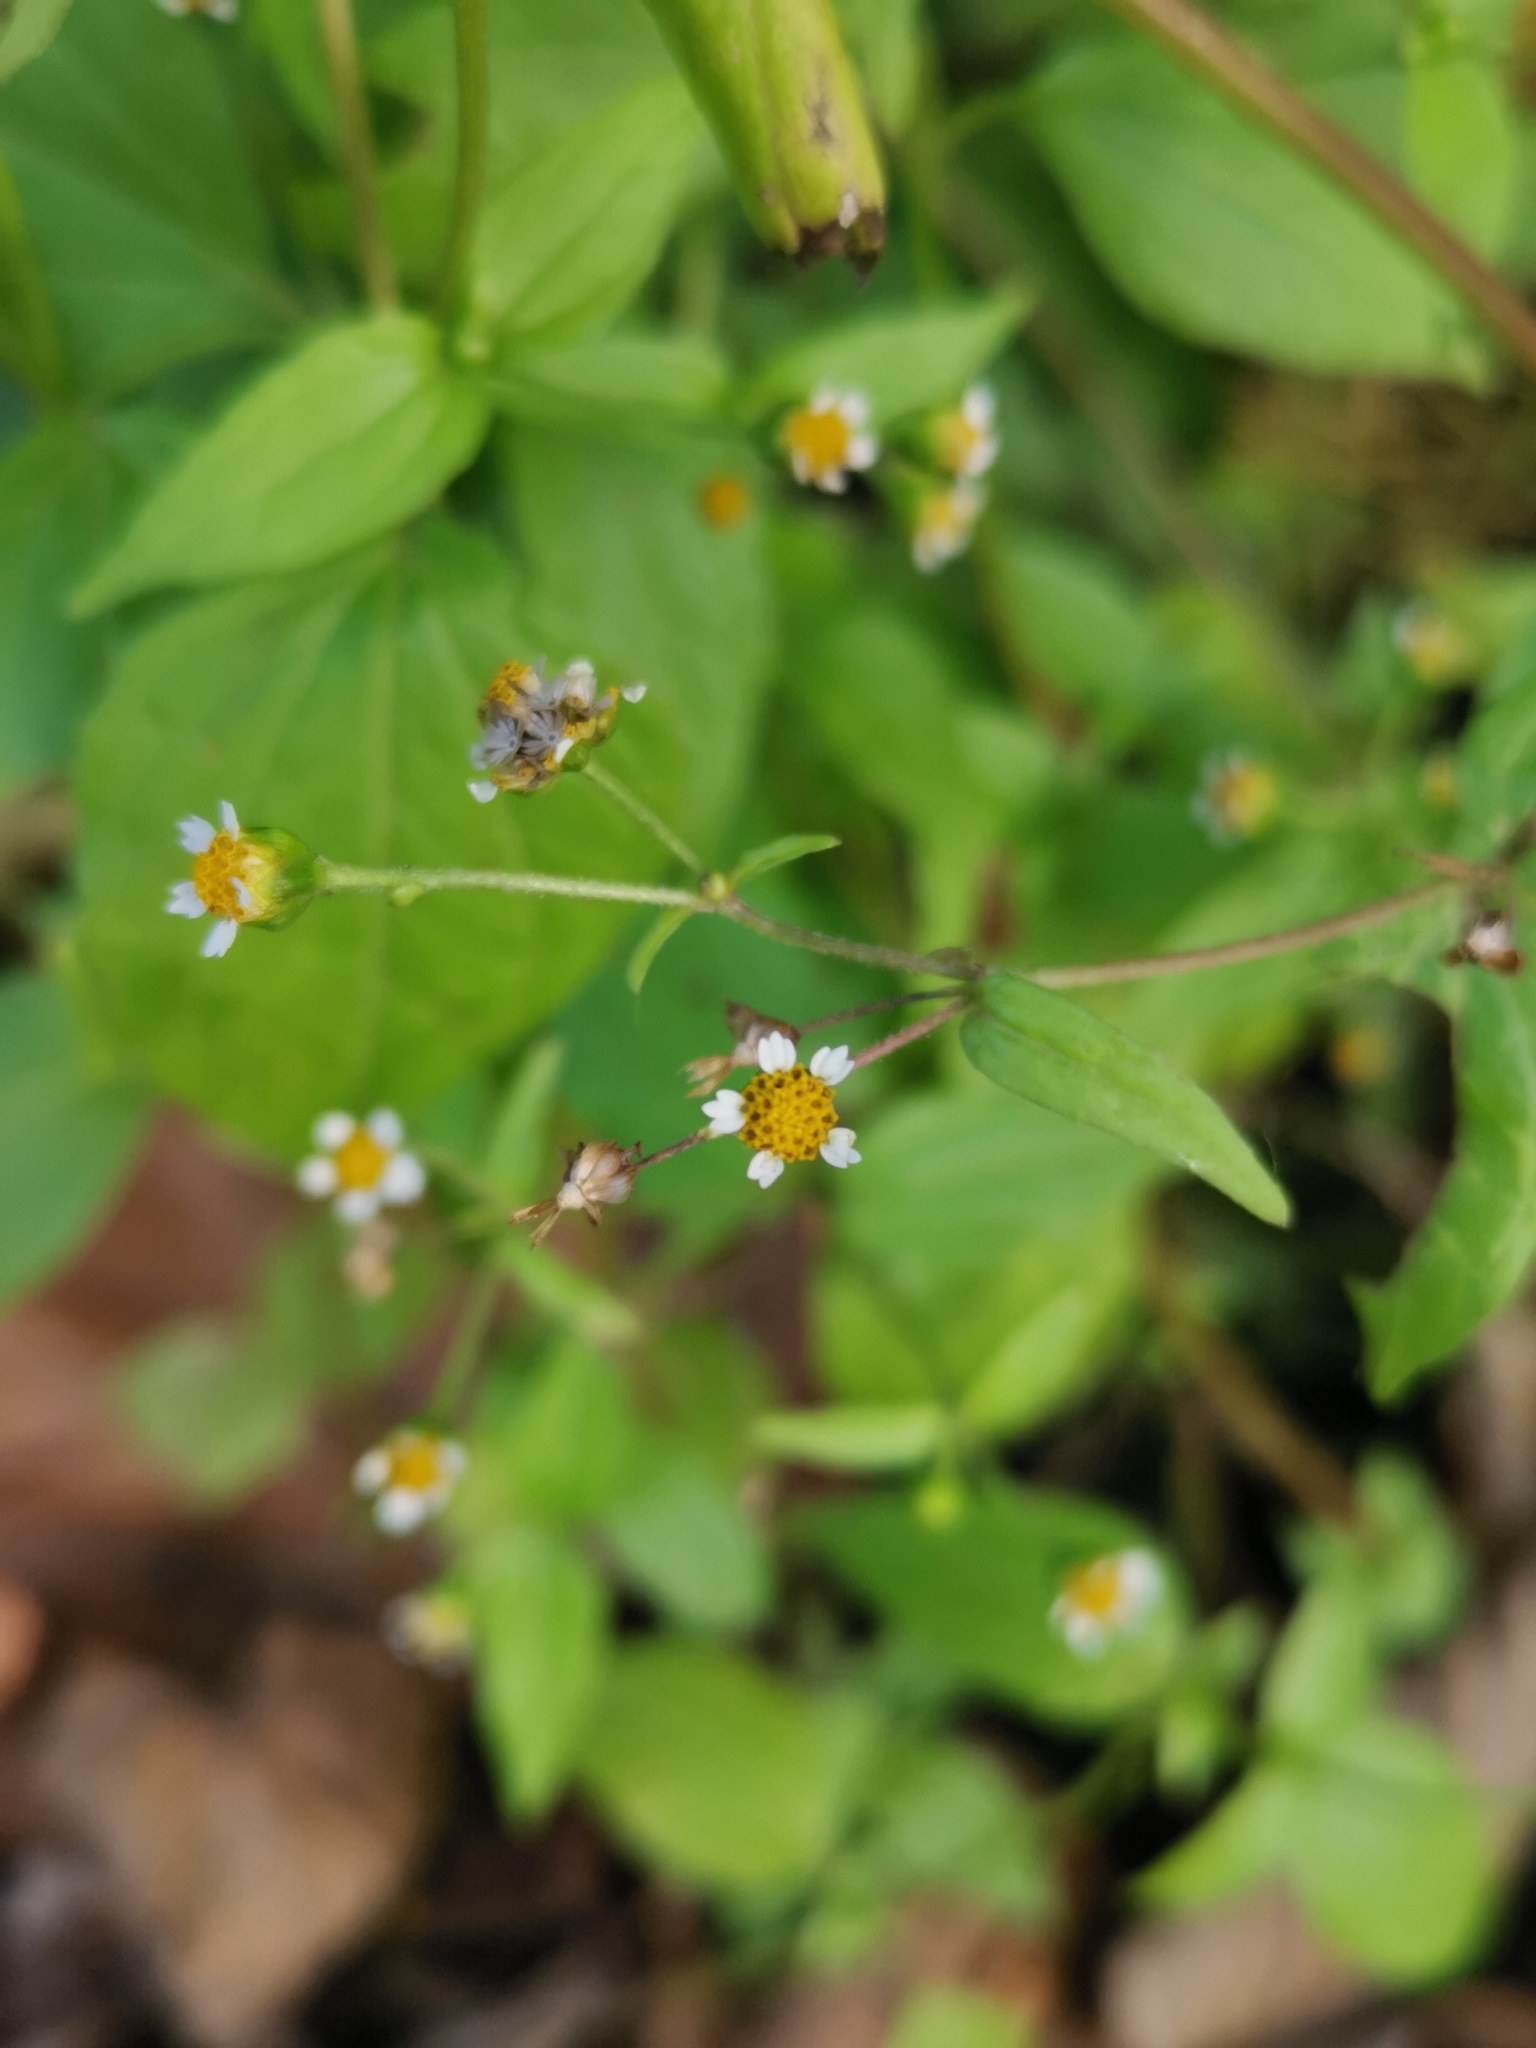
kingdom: Plantae
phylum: Tracheophyta
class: Magnoliopsida
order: Asterales
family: Asteraceae
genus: Galinsoga
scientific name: Galinsoga parviflora
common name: Gallant soldier
